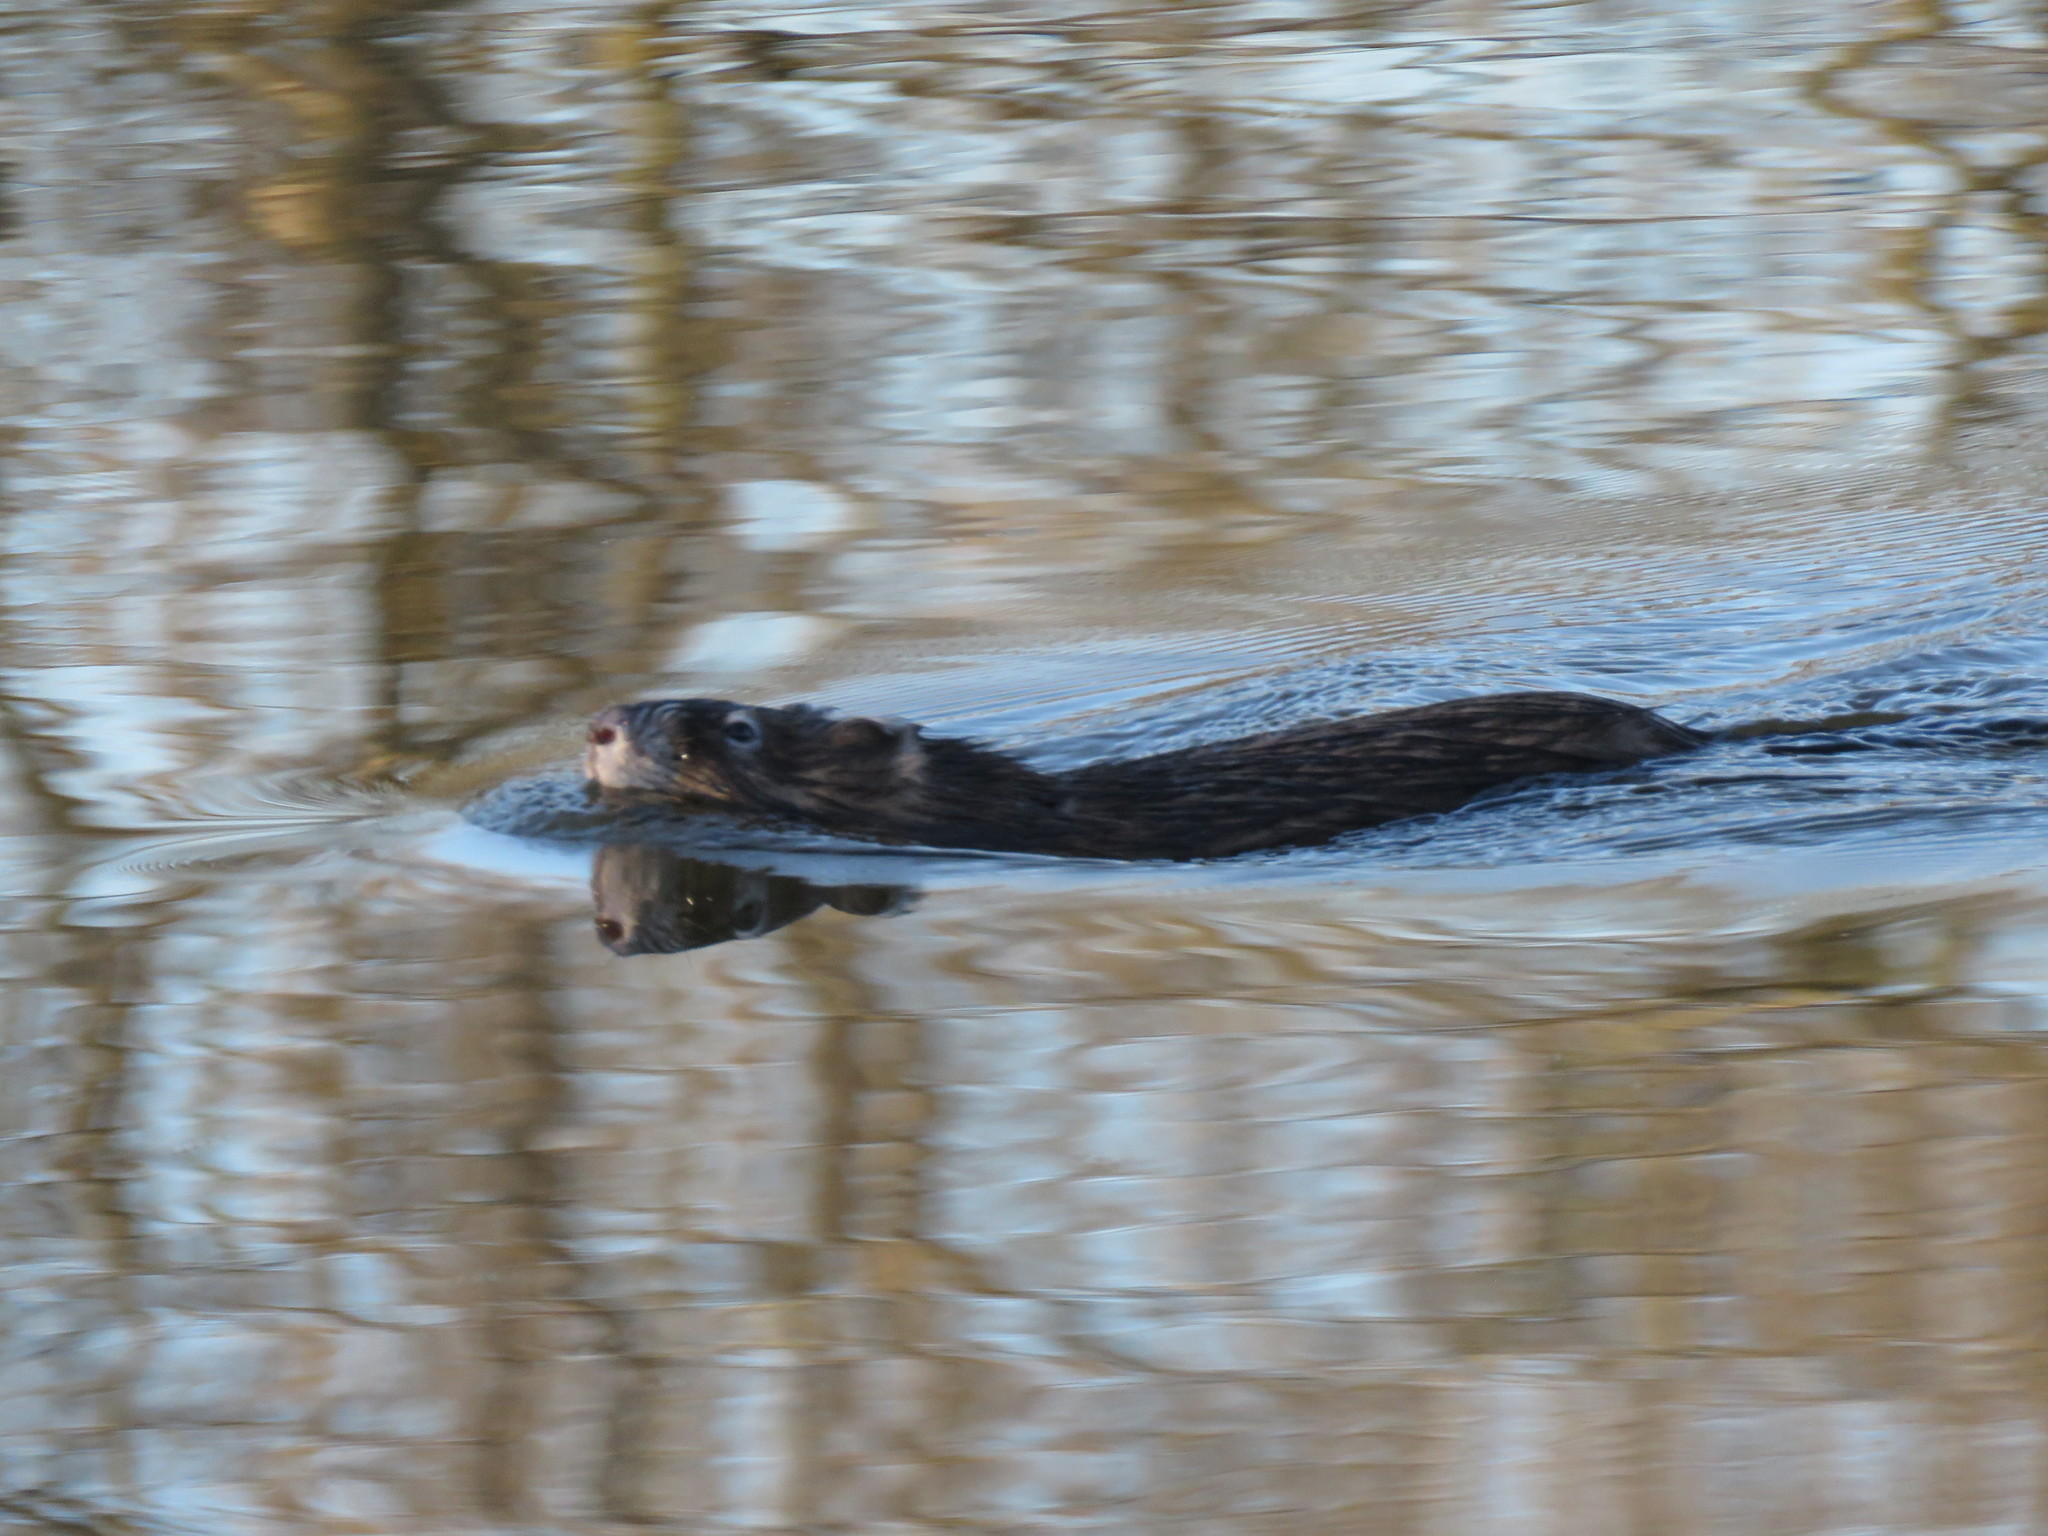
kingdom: Animalia
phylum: Chordata
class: Mammalia
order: Rodentia
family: Cricetidae
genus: Ondatra
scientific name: Ondatra zibethicus
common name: Muskrat
